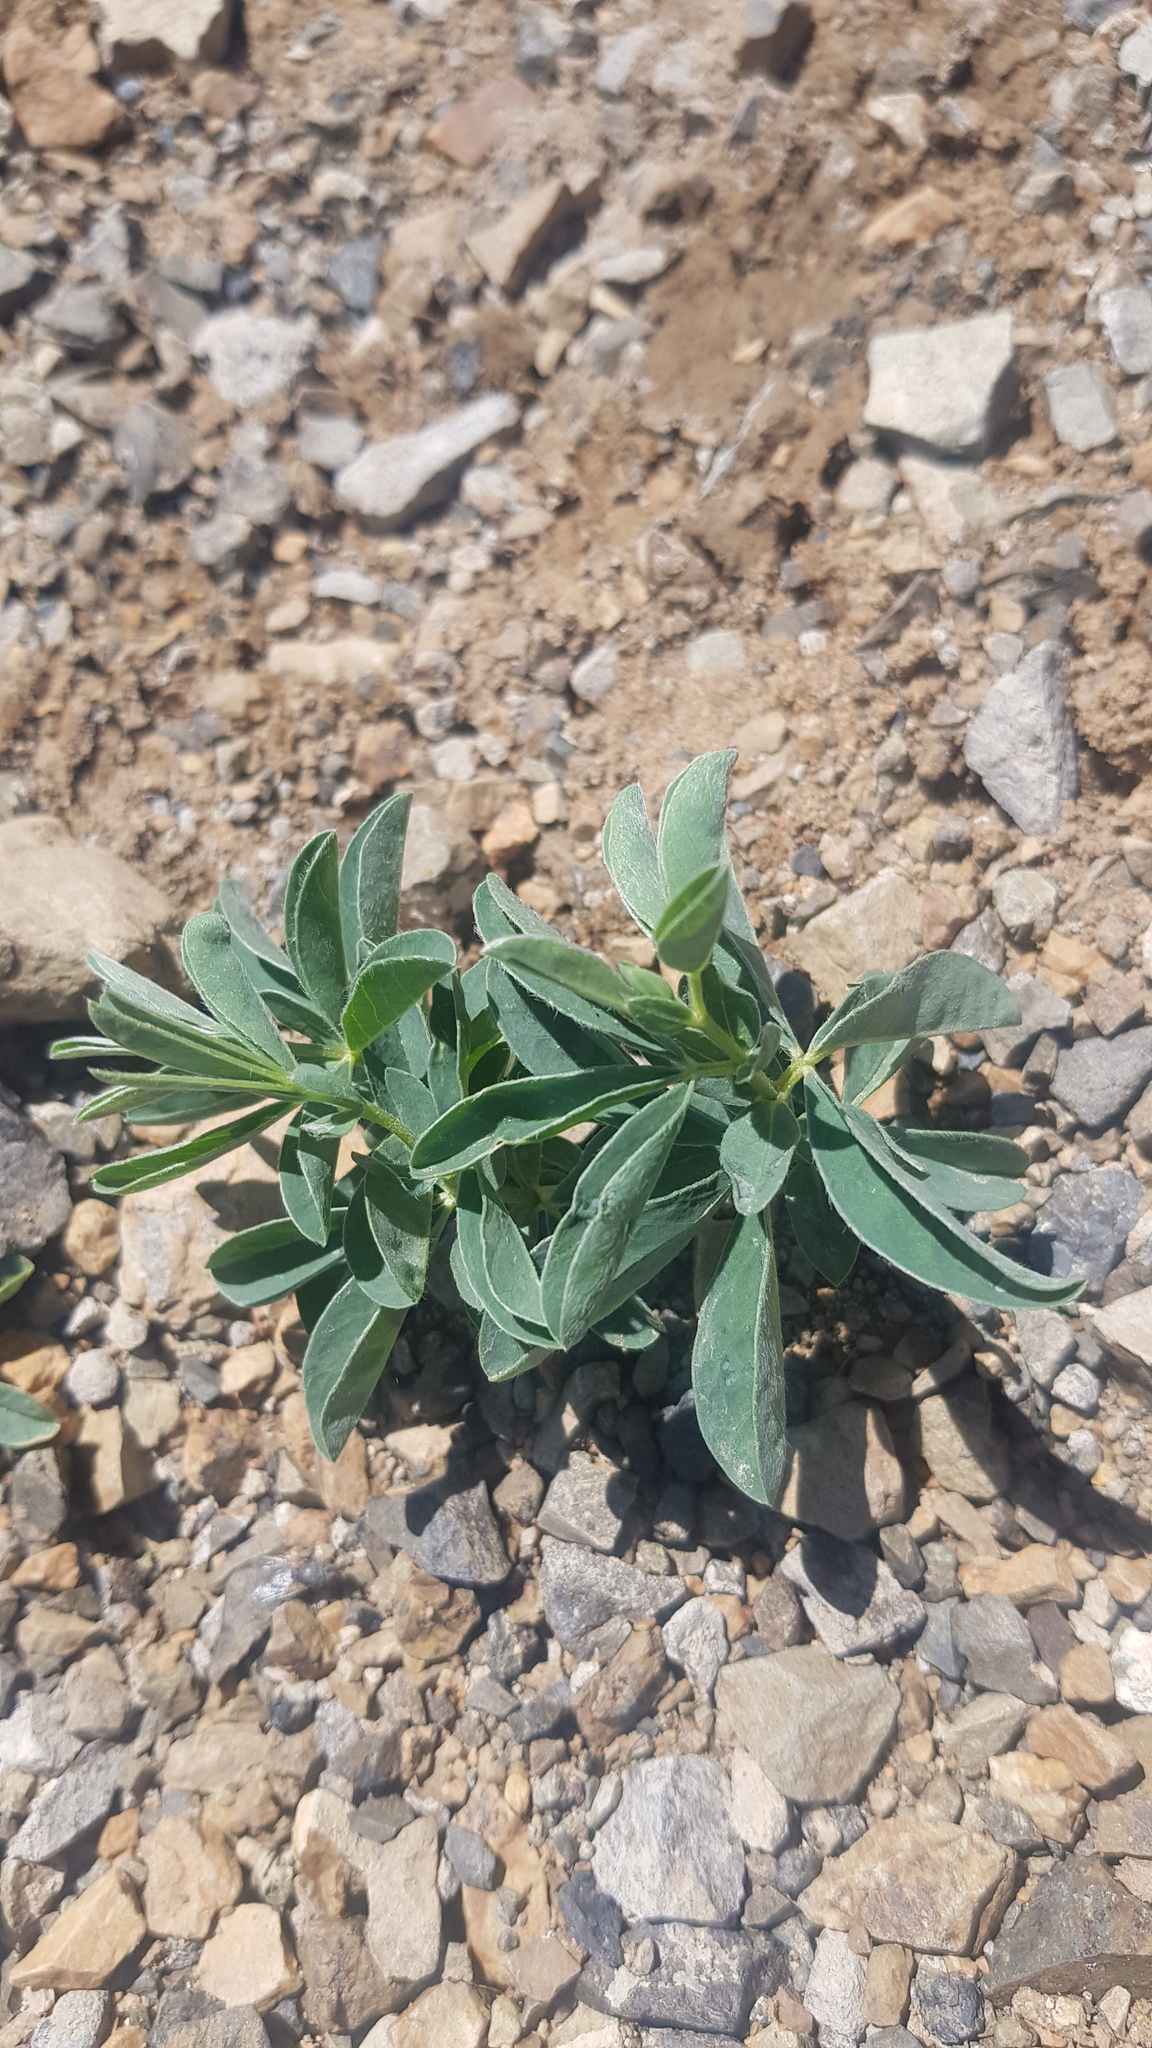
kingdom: Plantae
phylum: Tracheophyta
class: Magnoliopsida
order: Fabales
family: Fabaceae
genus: Thermopsis
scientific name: Thermopsis lanceolata
